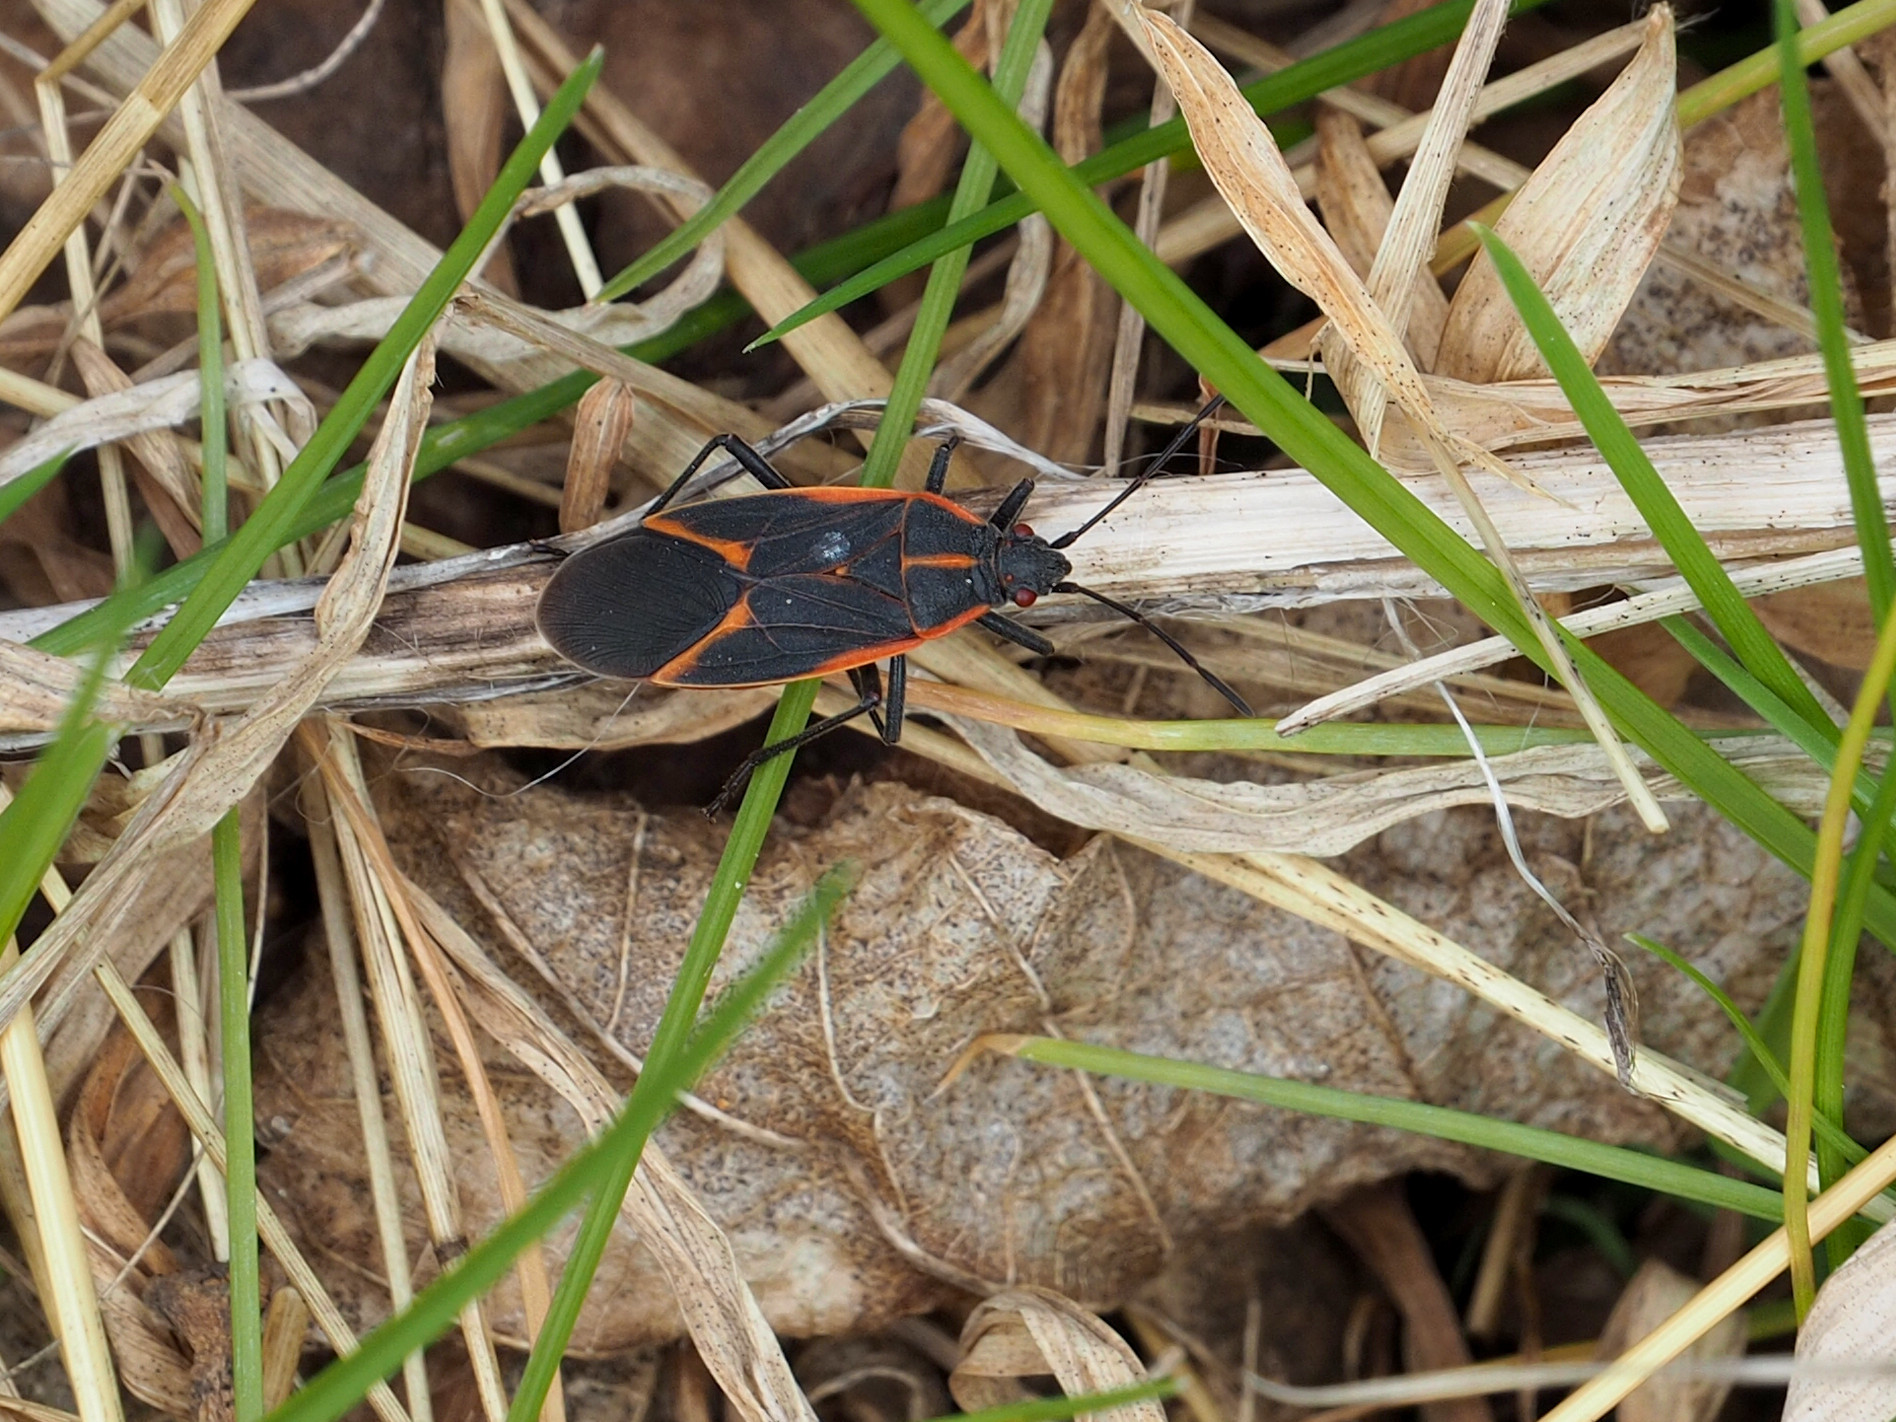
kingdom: Animalia
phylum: Arthropoda
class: Insecta
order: Hemiptera
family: Rhopalidae
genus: Boisea
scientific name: Boisea trivittata
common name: Boxelder bug
